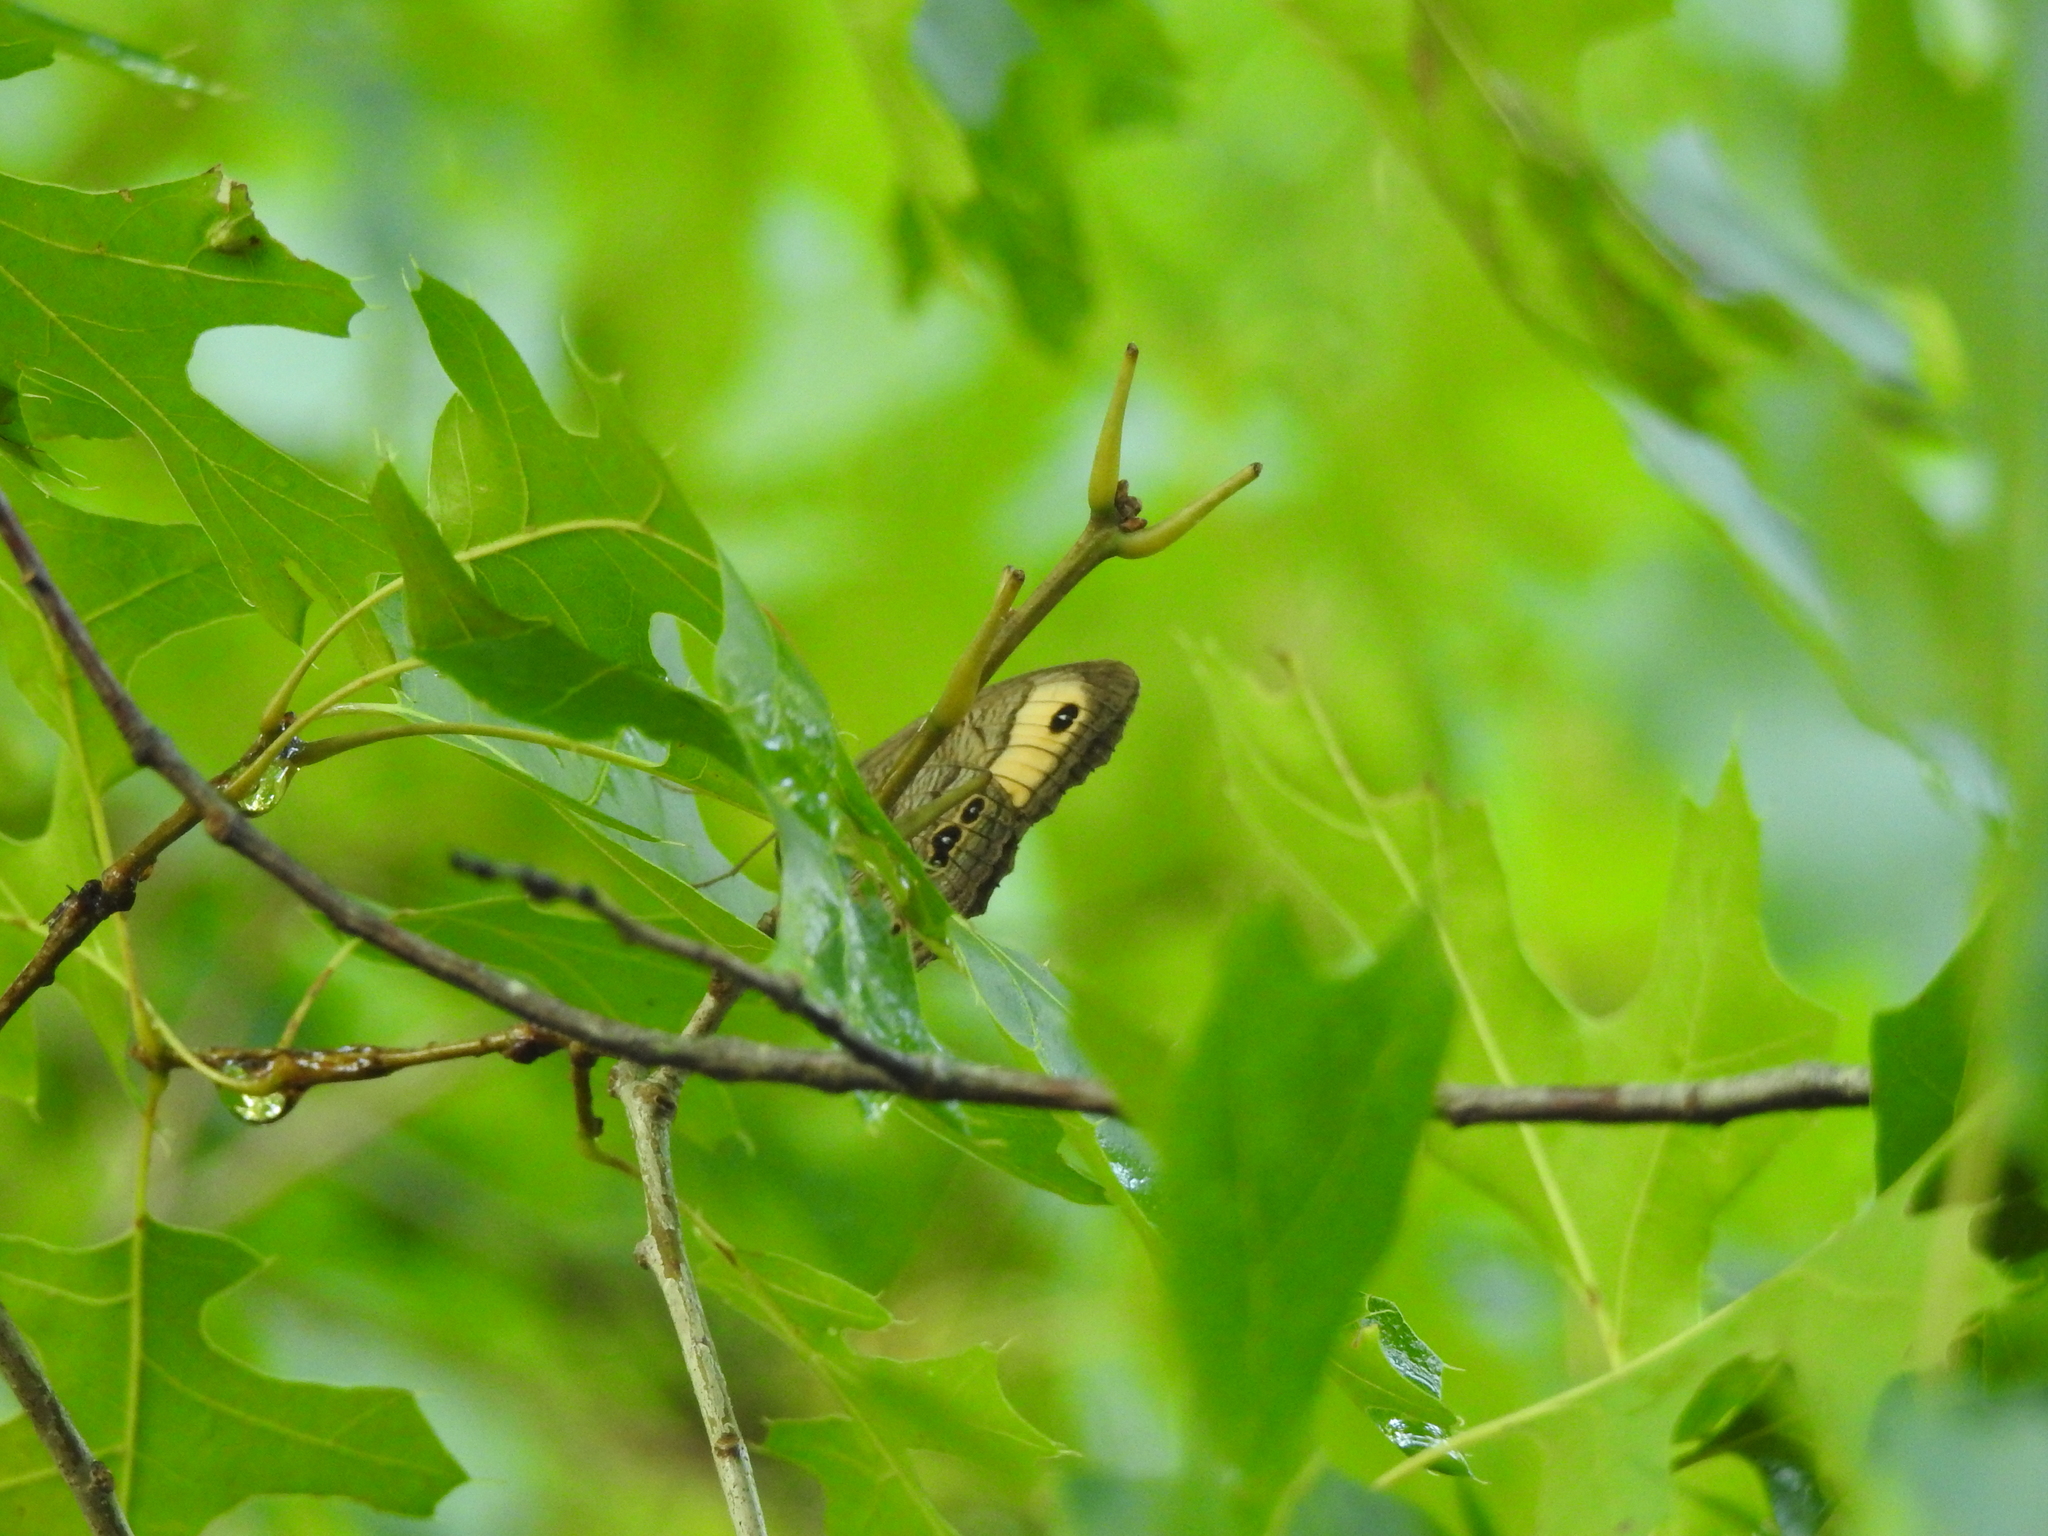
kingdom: Animalia
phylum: Arthropoda
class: Insecta
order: Lepidoptera
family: Nymphalidae
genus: Cercyonis
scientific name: Cercyonis pegala
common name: Common wood-nymph
